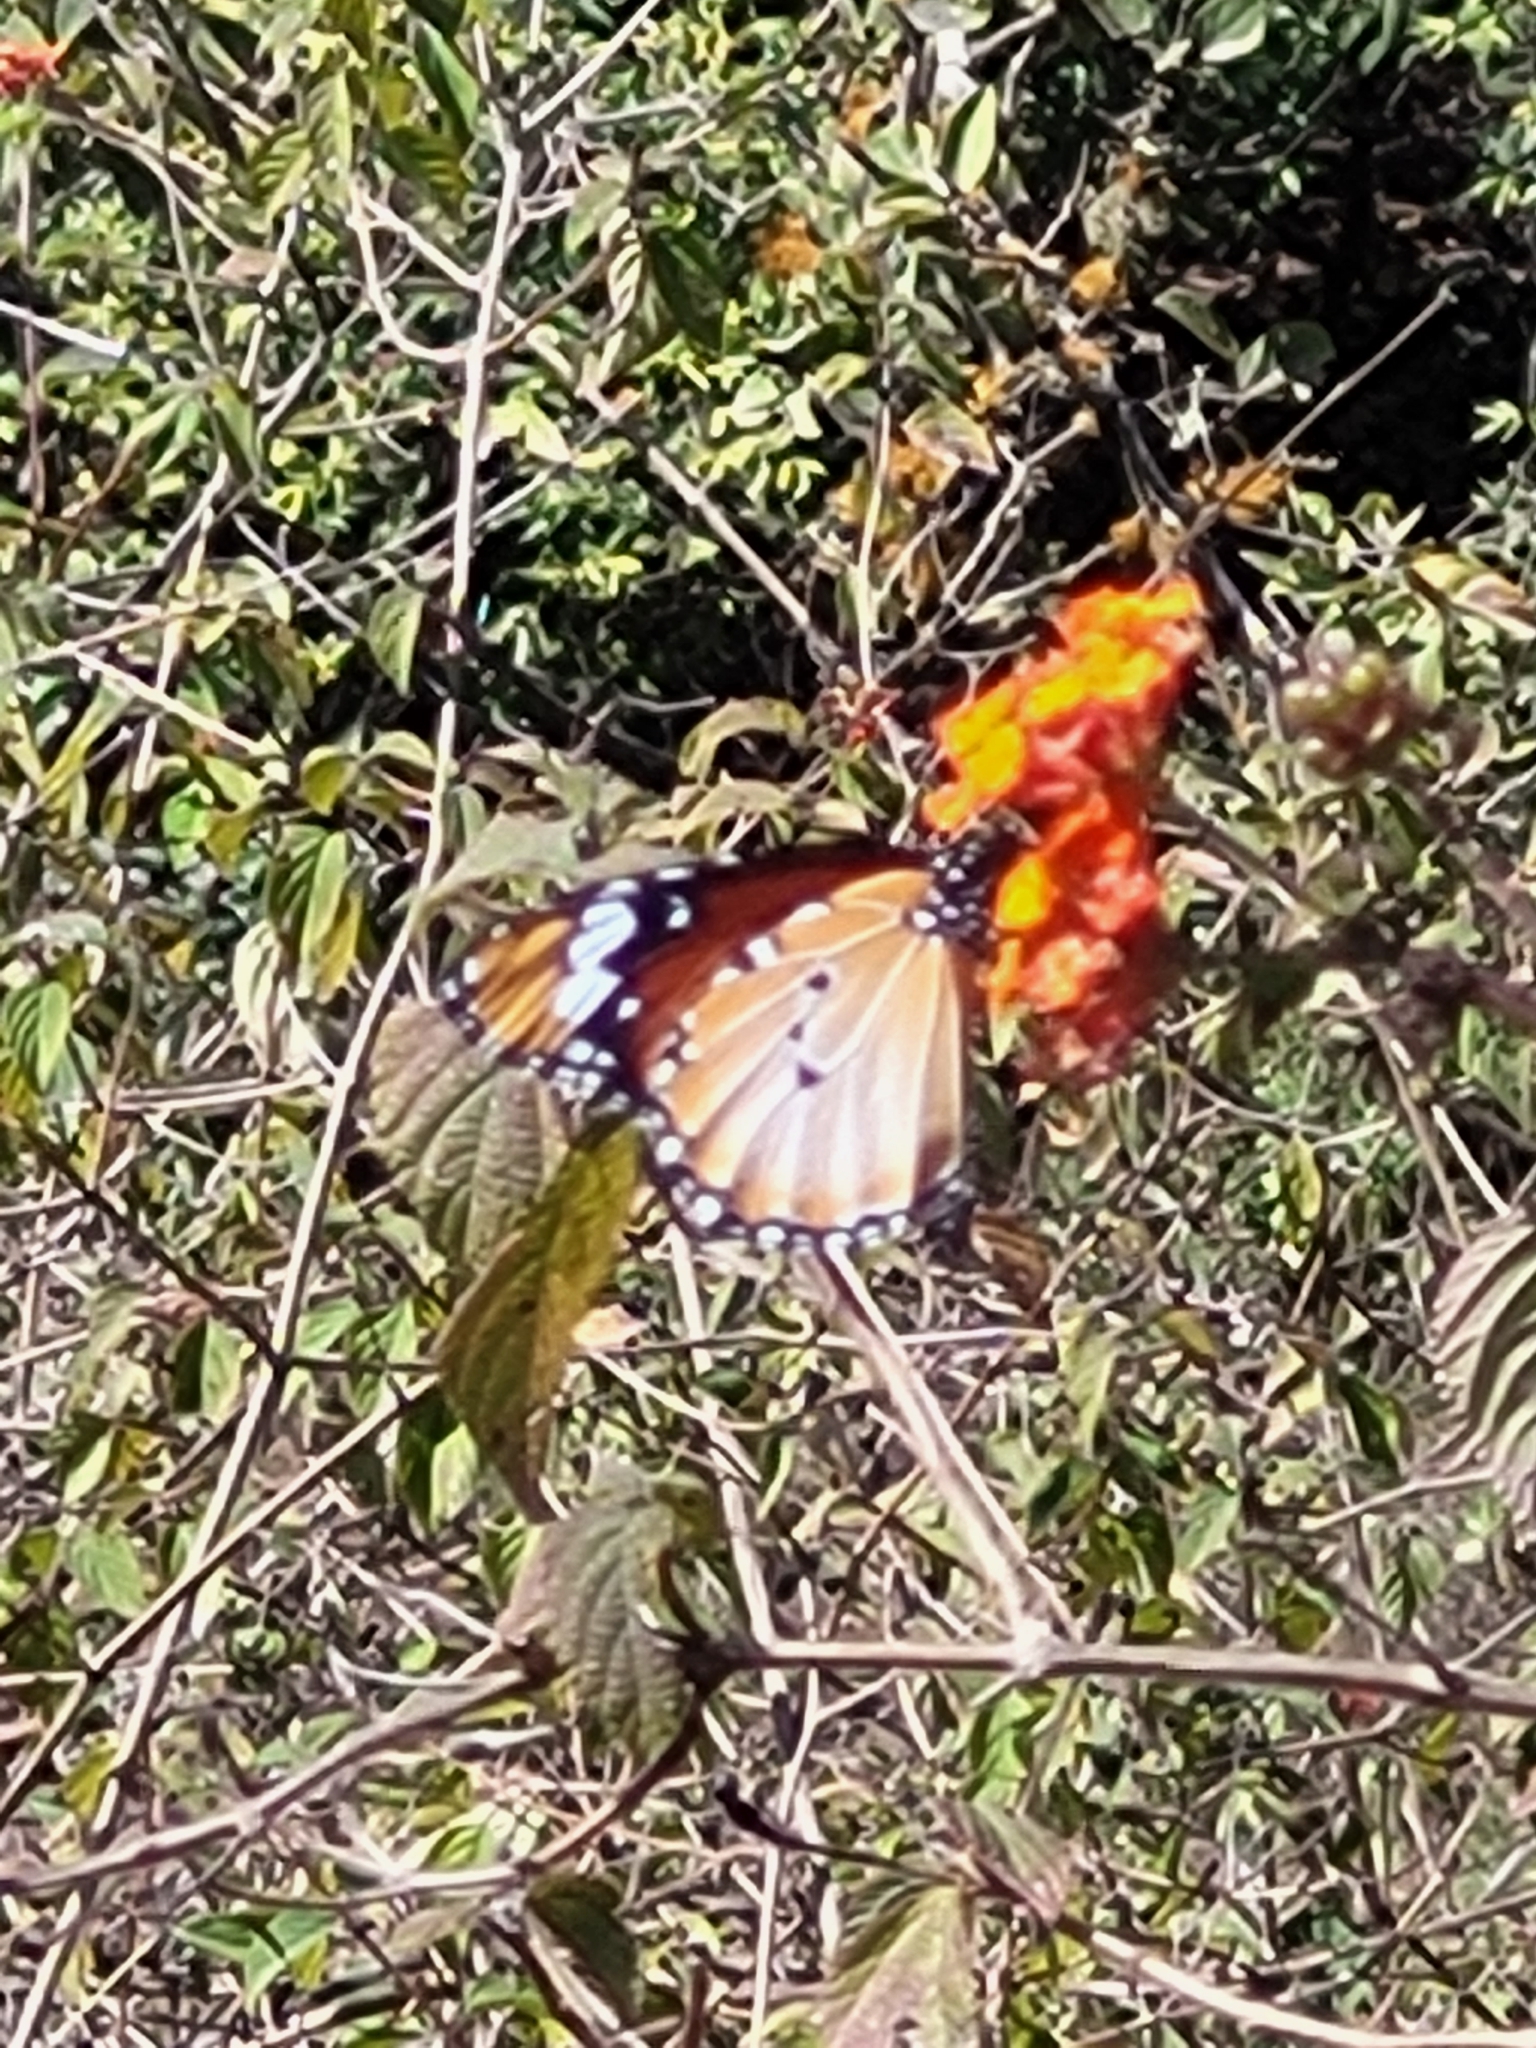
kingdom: Animalia
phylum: Arthropoda
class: Insecta
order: Lepidoptera
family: Nymphalidae
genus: Danaus
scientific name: Danaus chrysippus
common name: Plain tiger
